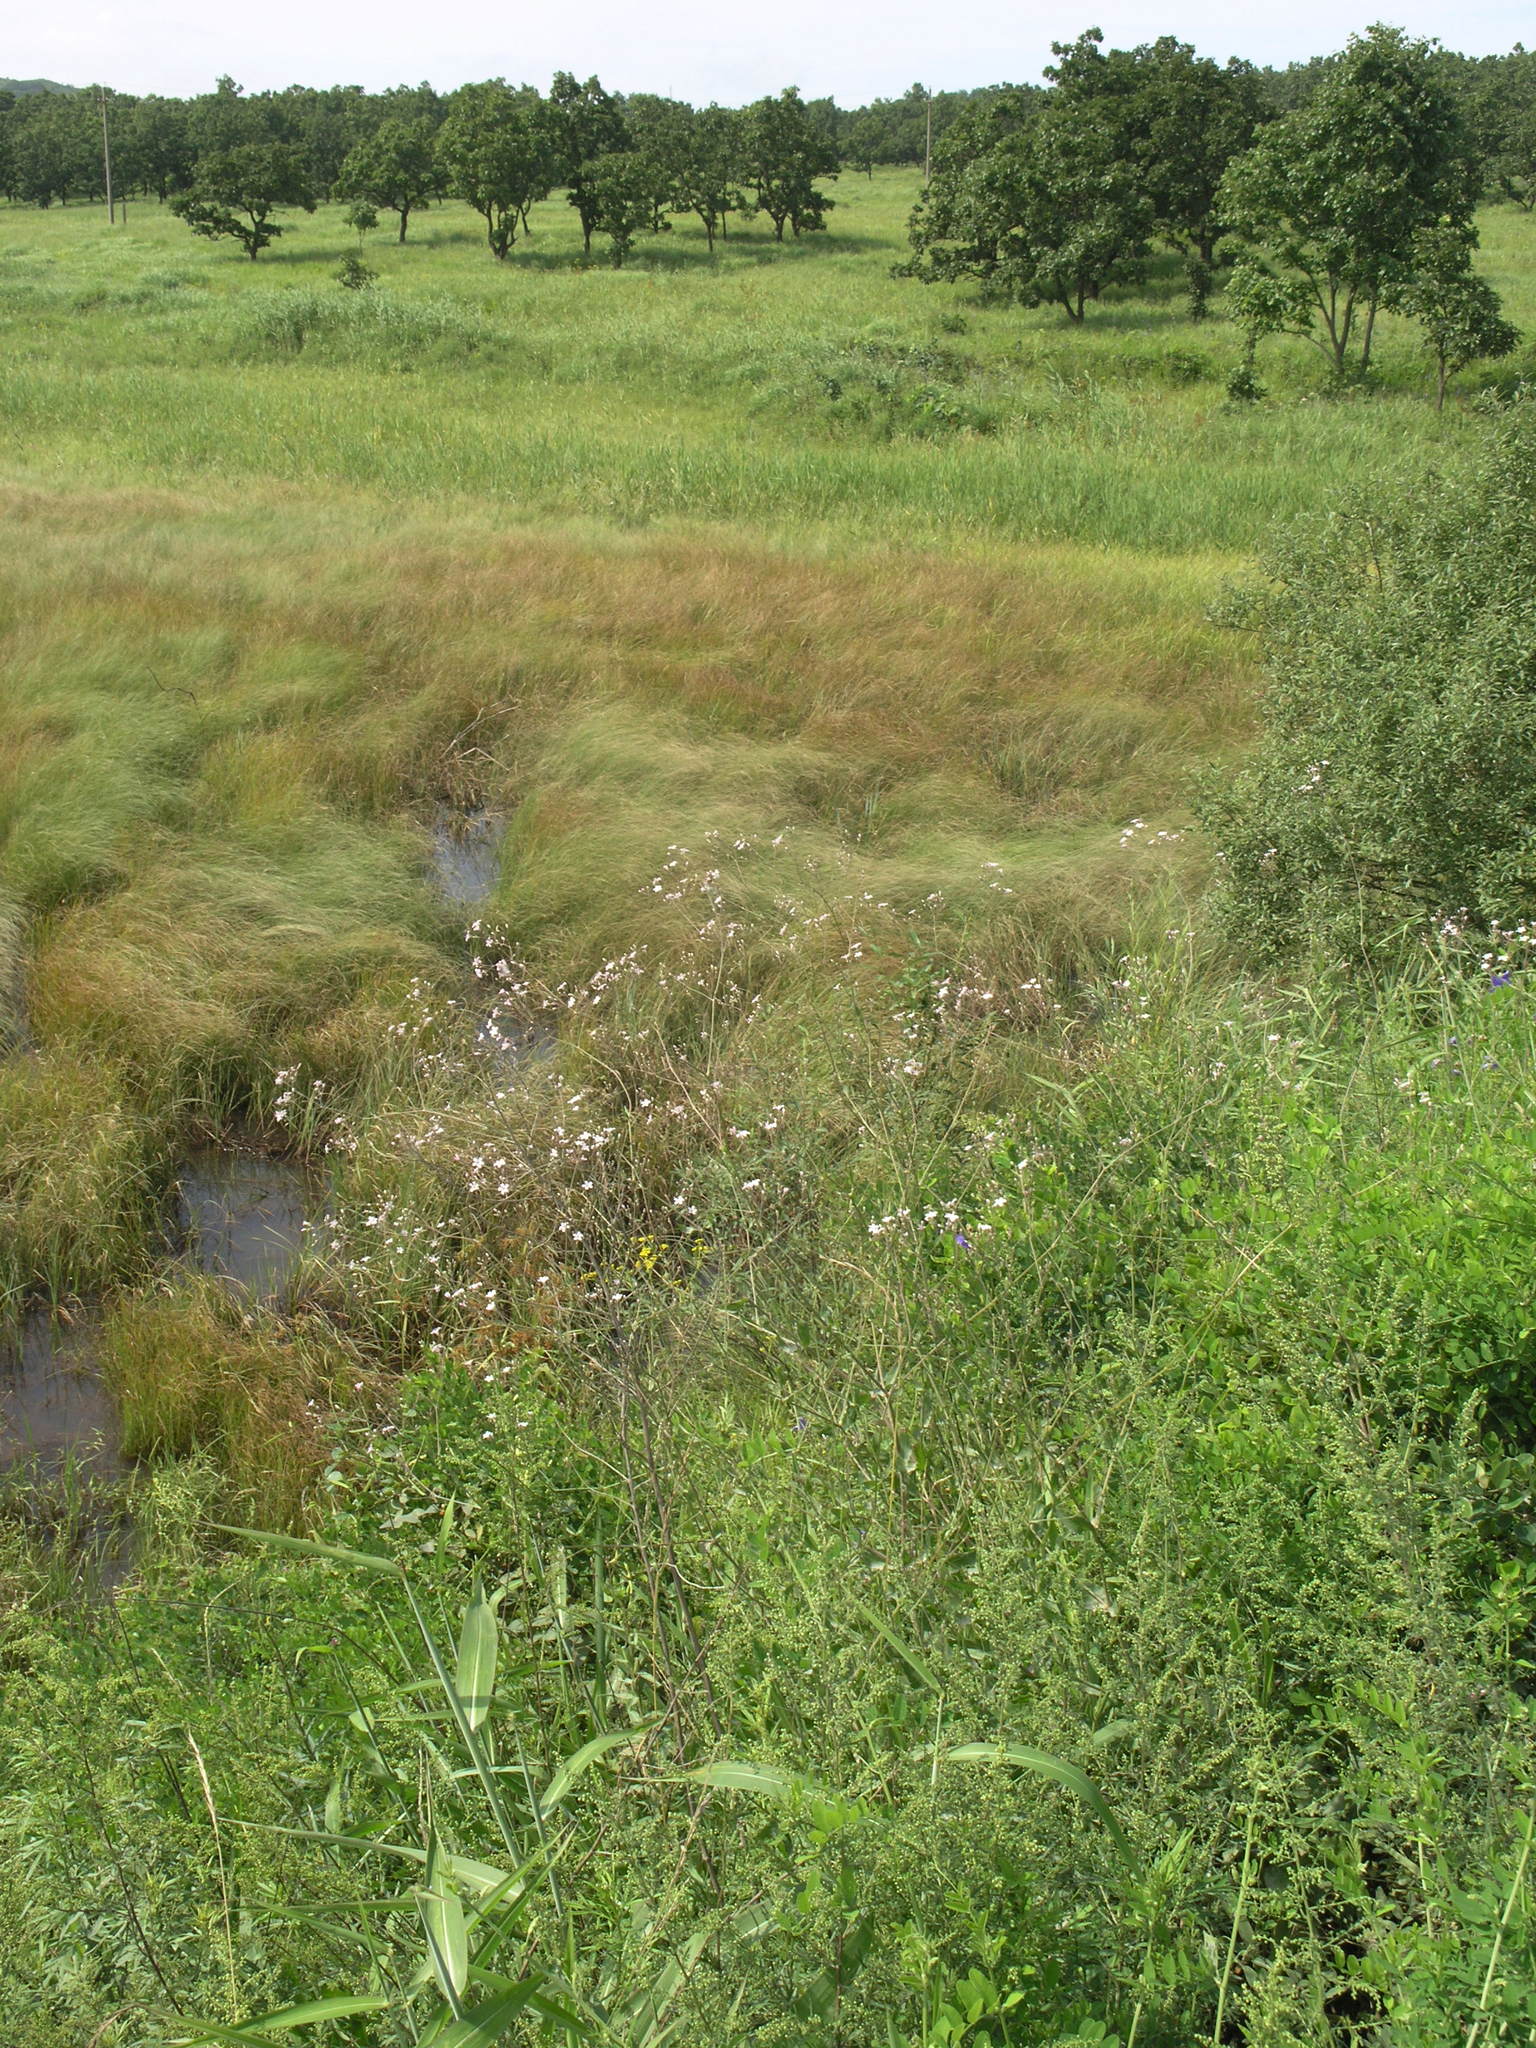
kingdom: Plantae
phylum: Tracheophyta
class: Magnoliopsida
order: Caryophyllales
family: Caryophyllaceae
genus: Gypsophila
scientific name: Gypsophila pacifica
